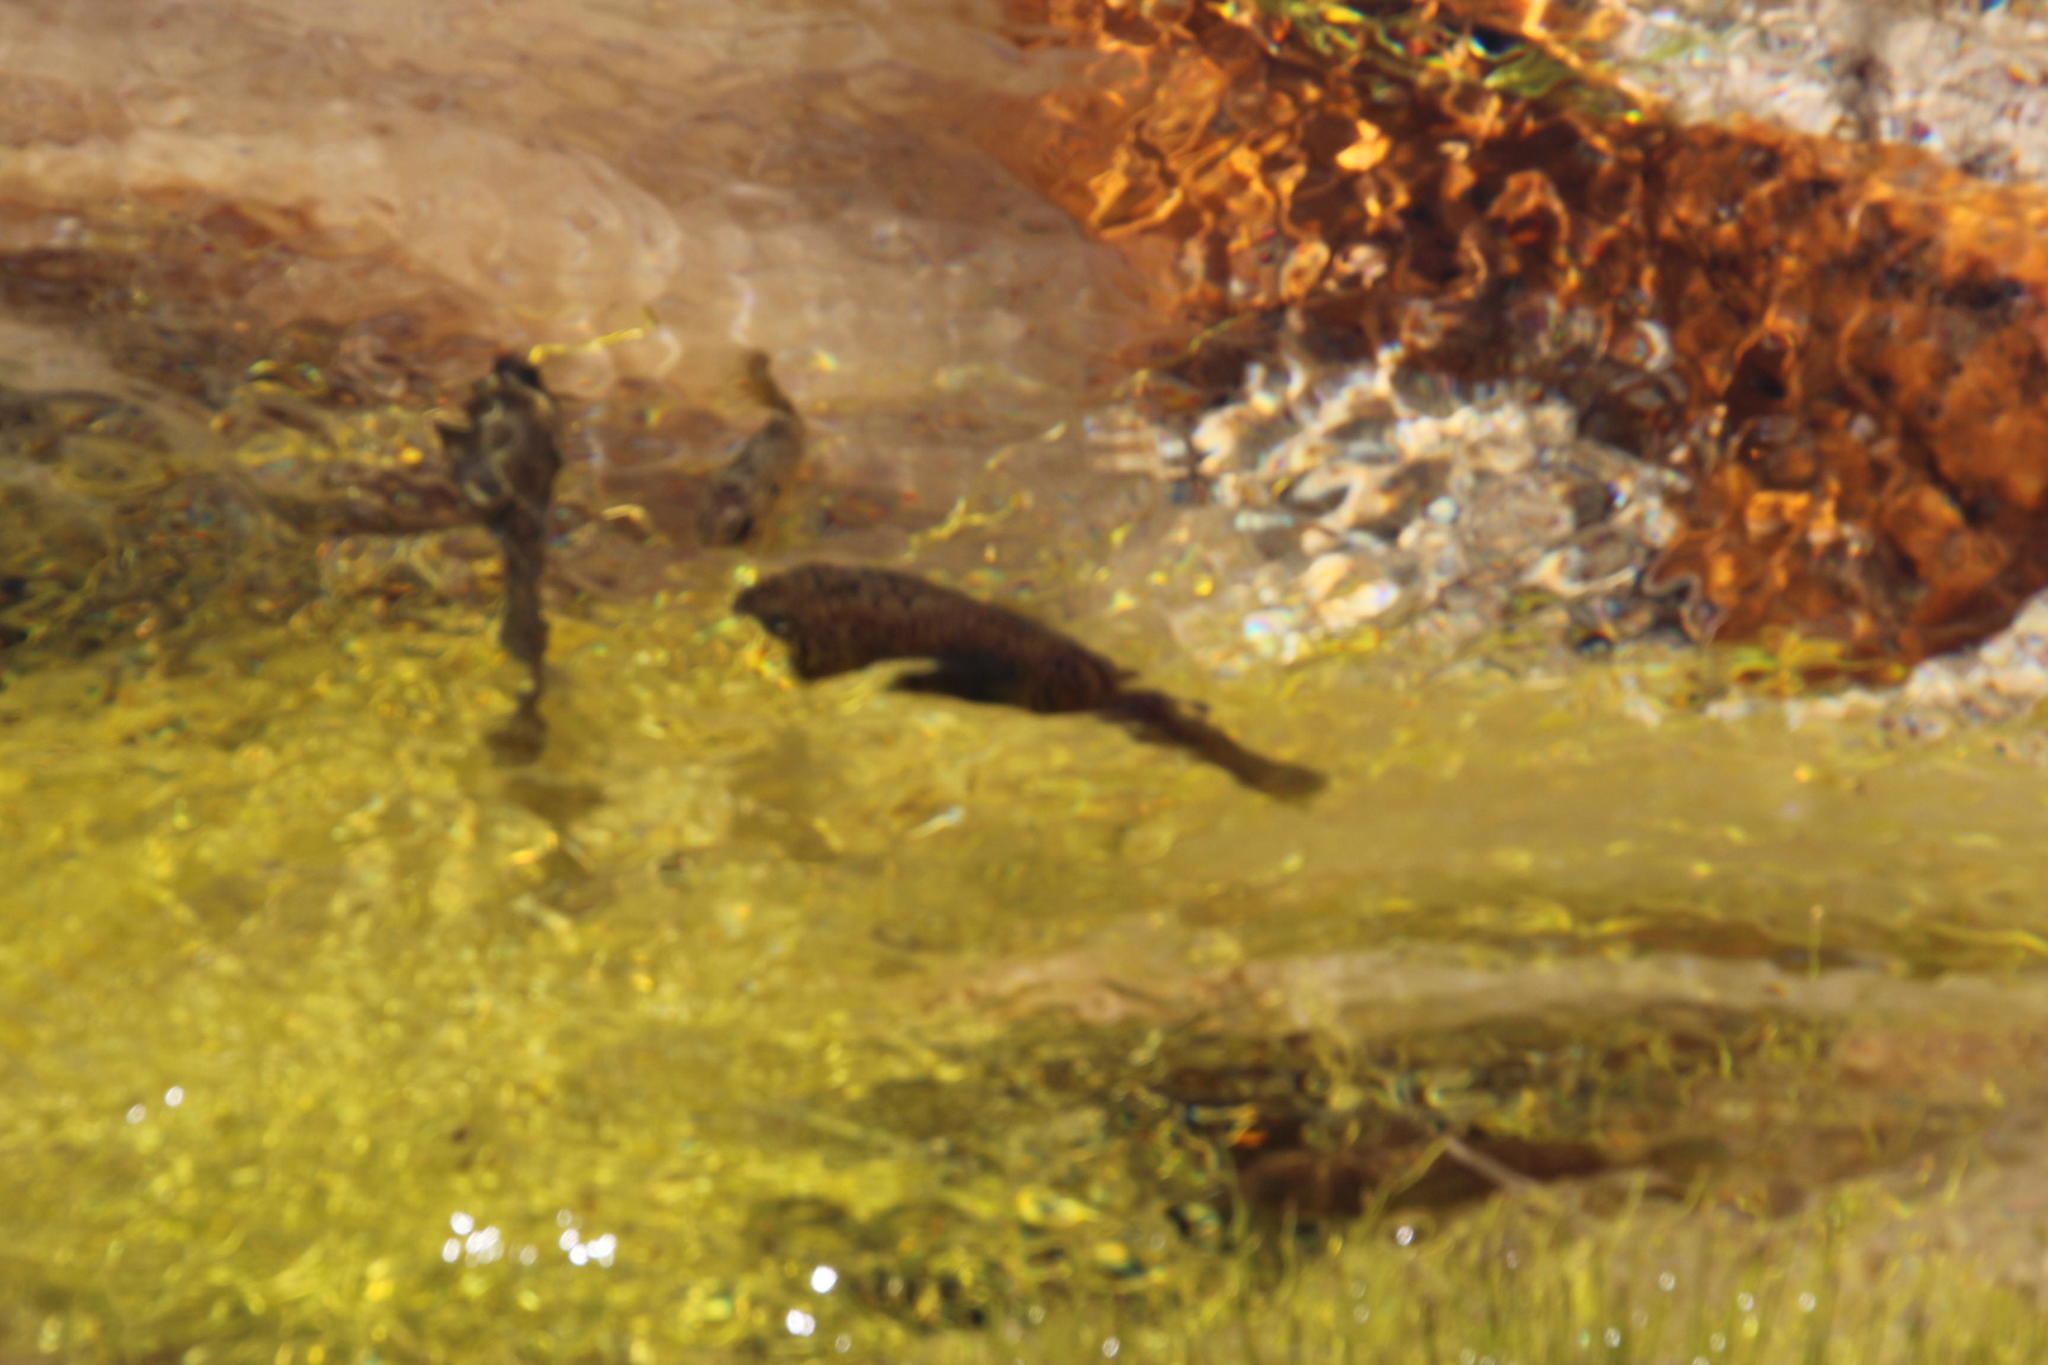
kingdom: Animalia
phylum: Chordata
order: Perciformes
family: Anabantidae
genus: Sandelia
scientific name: Sandelia capensis
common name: Cape kurper
